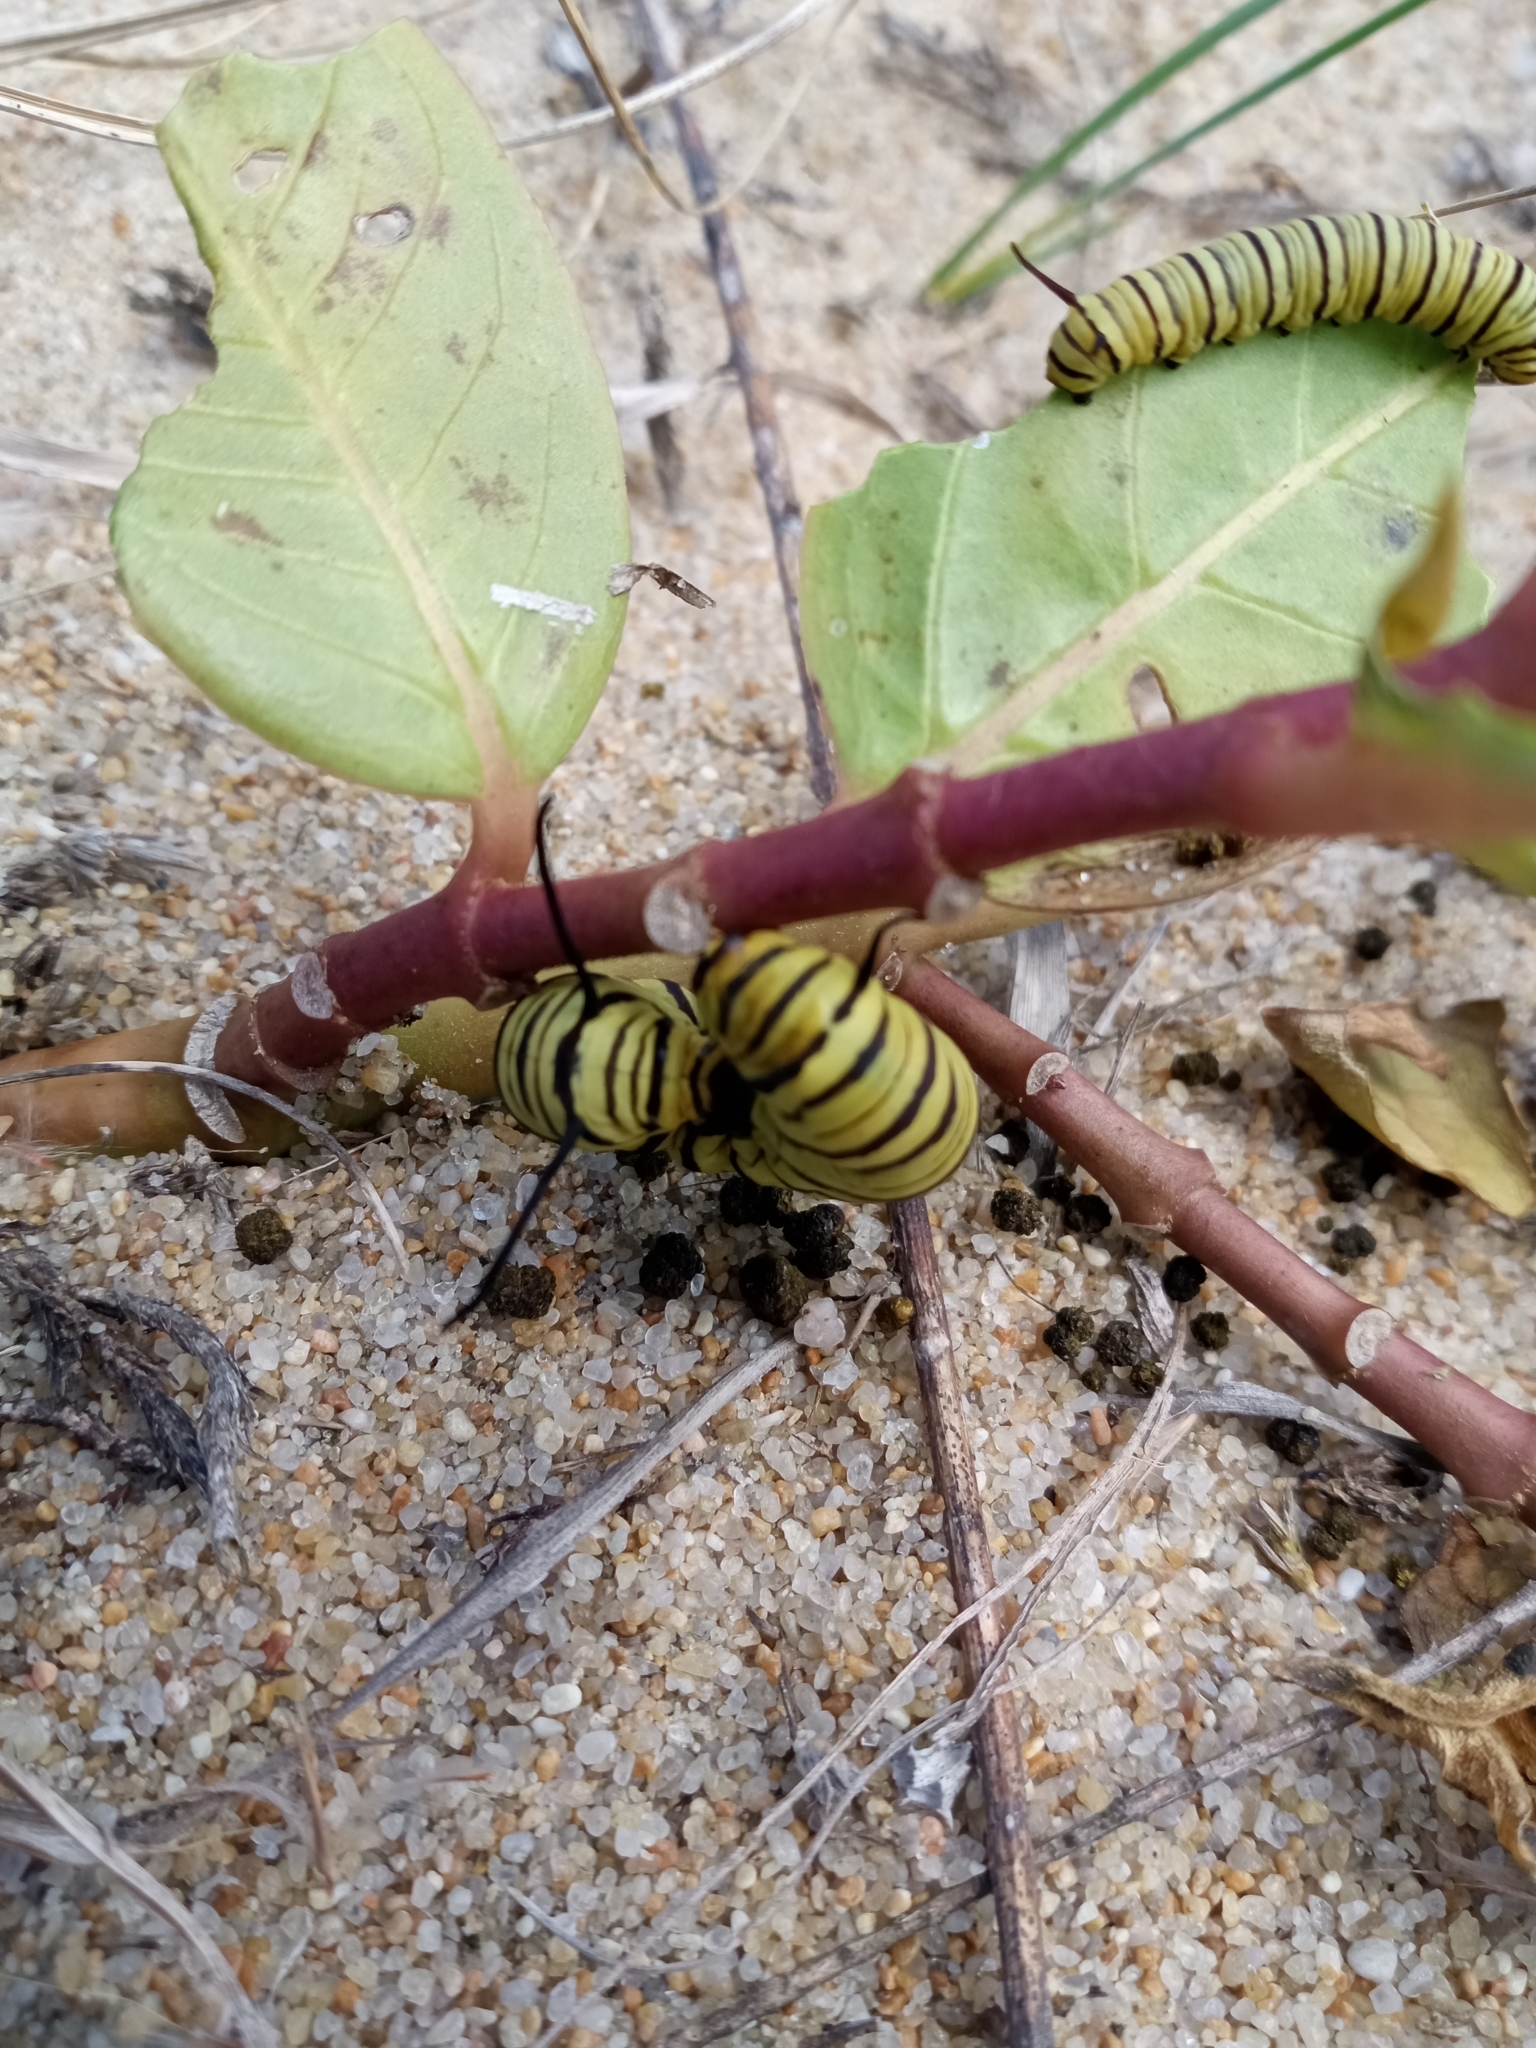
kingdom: Animalia
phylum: Arthropoda
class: Insecta
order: Lepidoptera
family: Nymphalidae
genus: Danaus
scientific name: Danaus erippus
